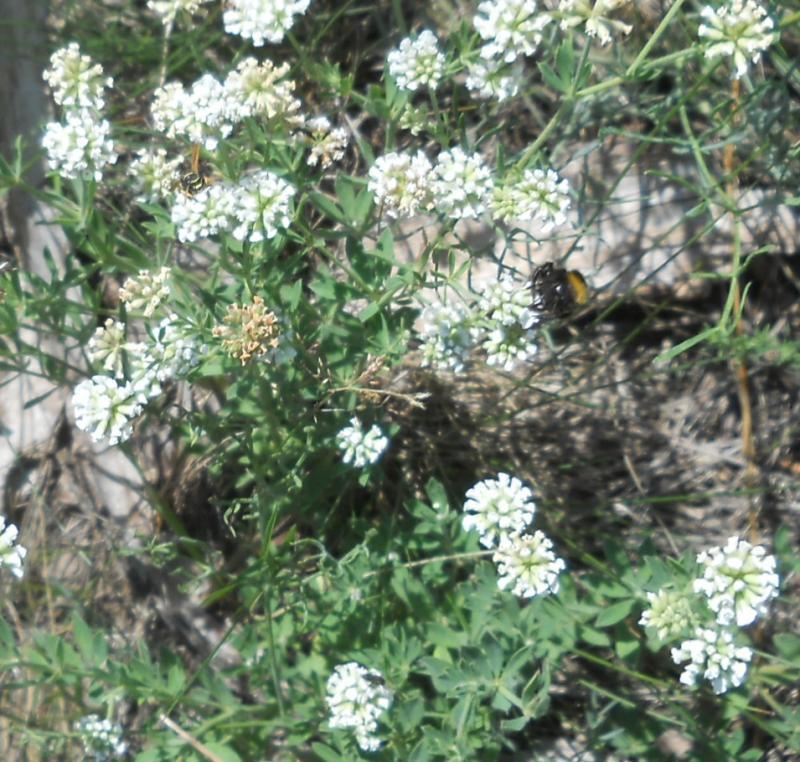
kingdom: Plantae
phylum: Tracheophyta
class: Magnoliopsida
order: Fabales
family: Fabaceae
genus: Lotus
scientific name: Lotus herbaceus
